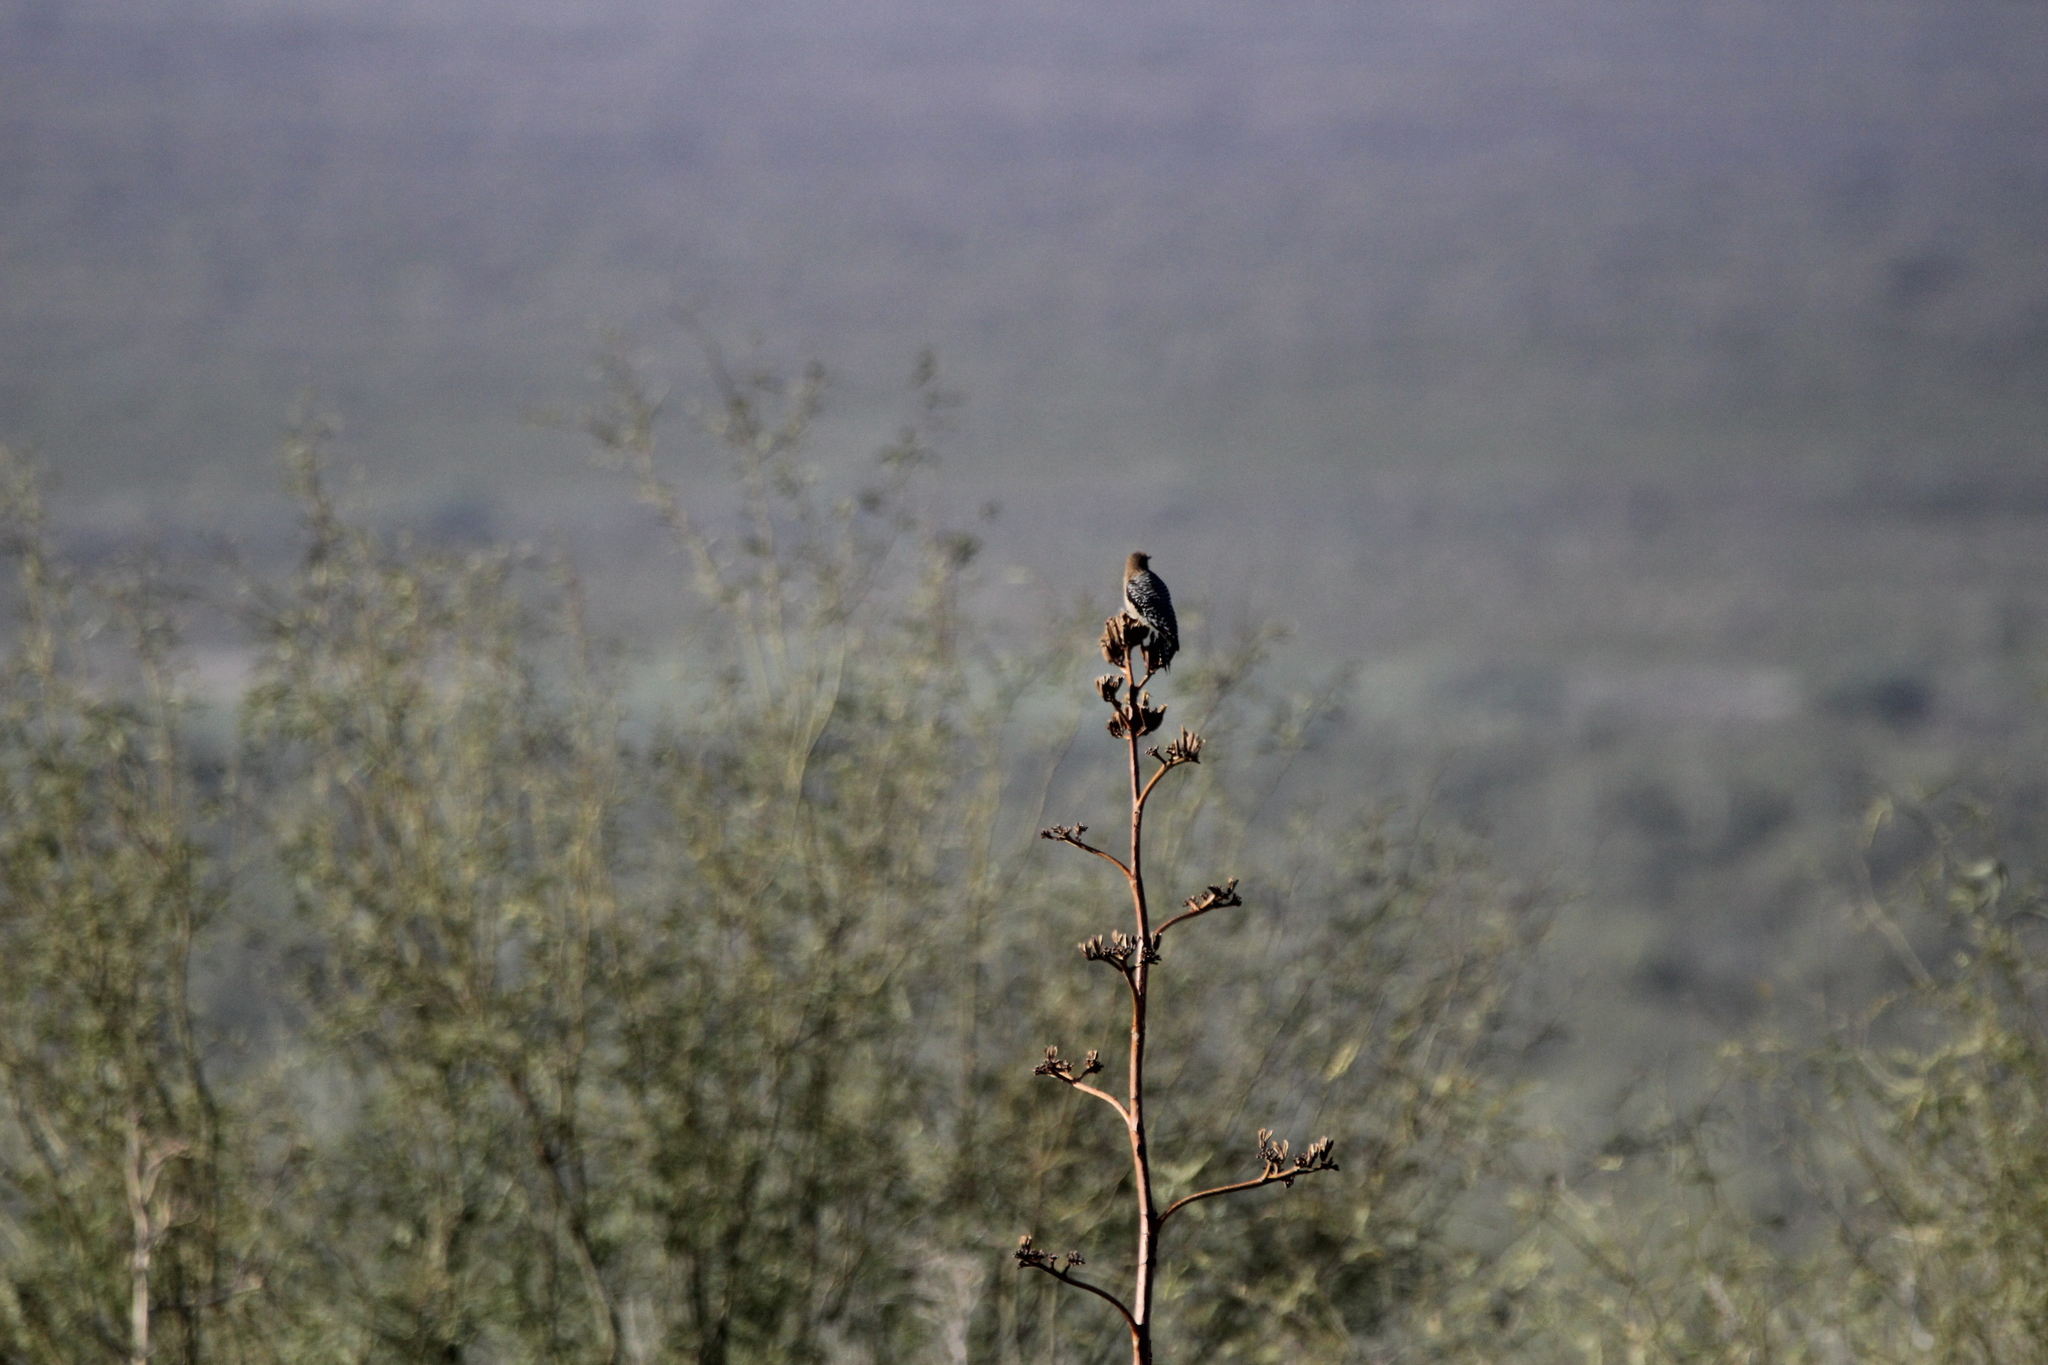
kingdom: Animalia
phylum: Chordata
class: Aves
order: Piciformes
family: Picidae
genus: Melanerpes
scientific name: Melanerpes uropygialis
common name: Gila woodpecker
